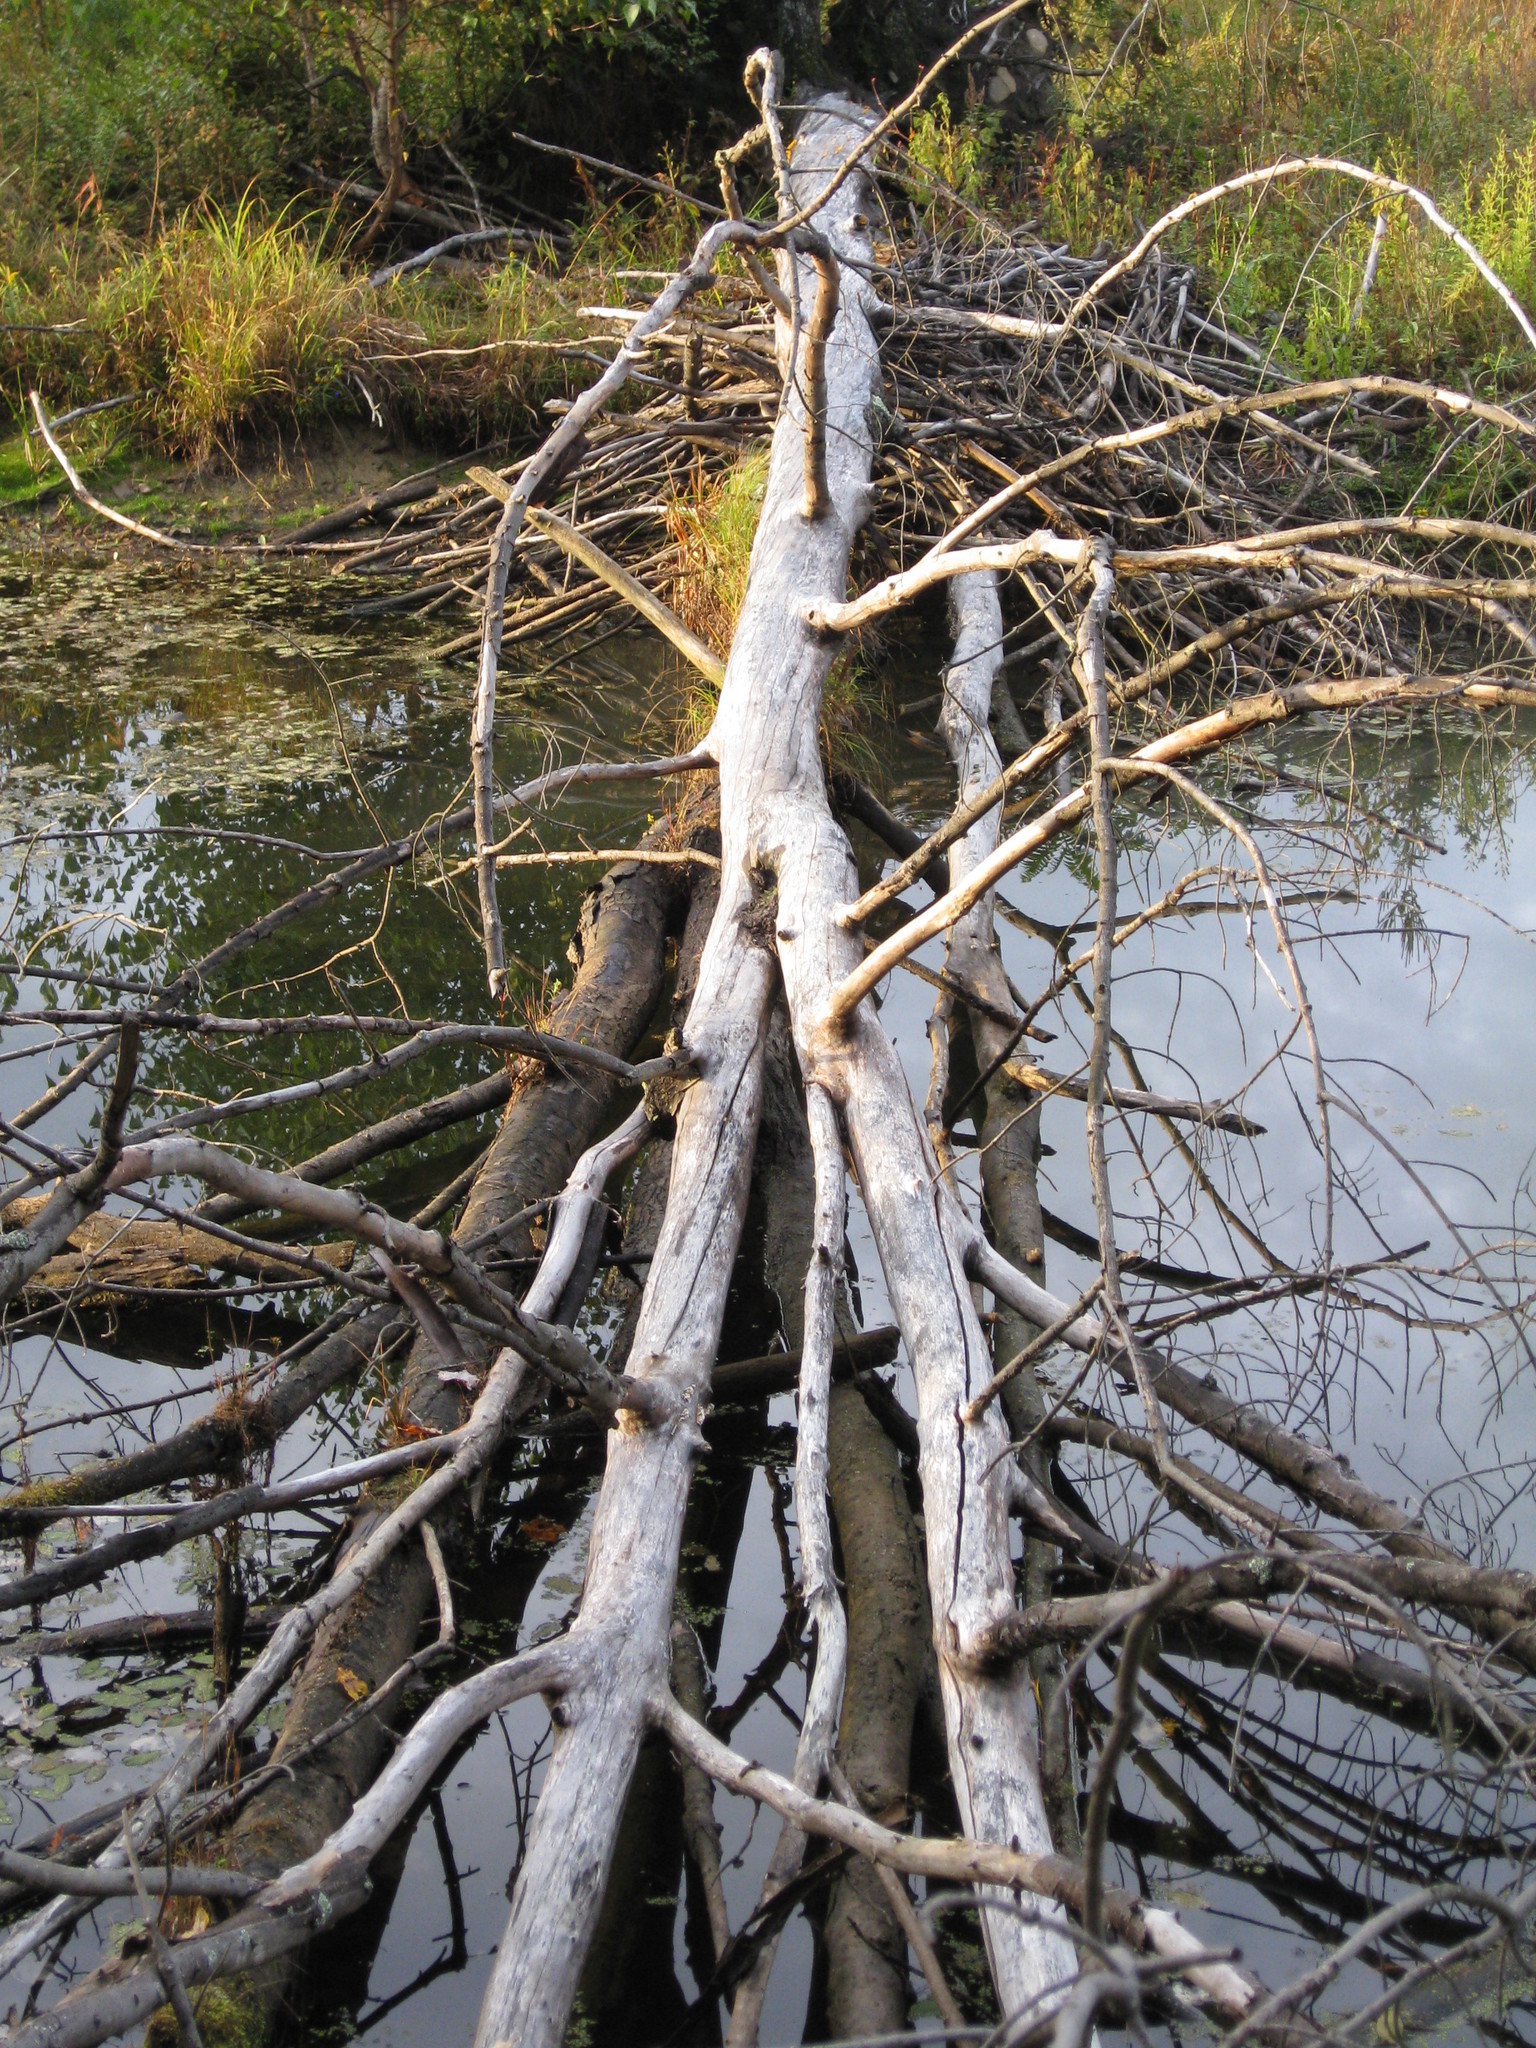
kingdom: Animalia
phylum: Chordata
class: Mammalia
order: Rodentia
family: Castoridae
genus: Castor
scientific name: Castor canadensis
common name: American beaver
